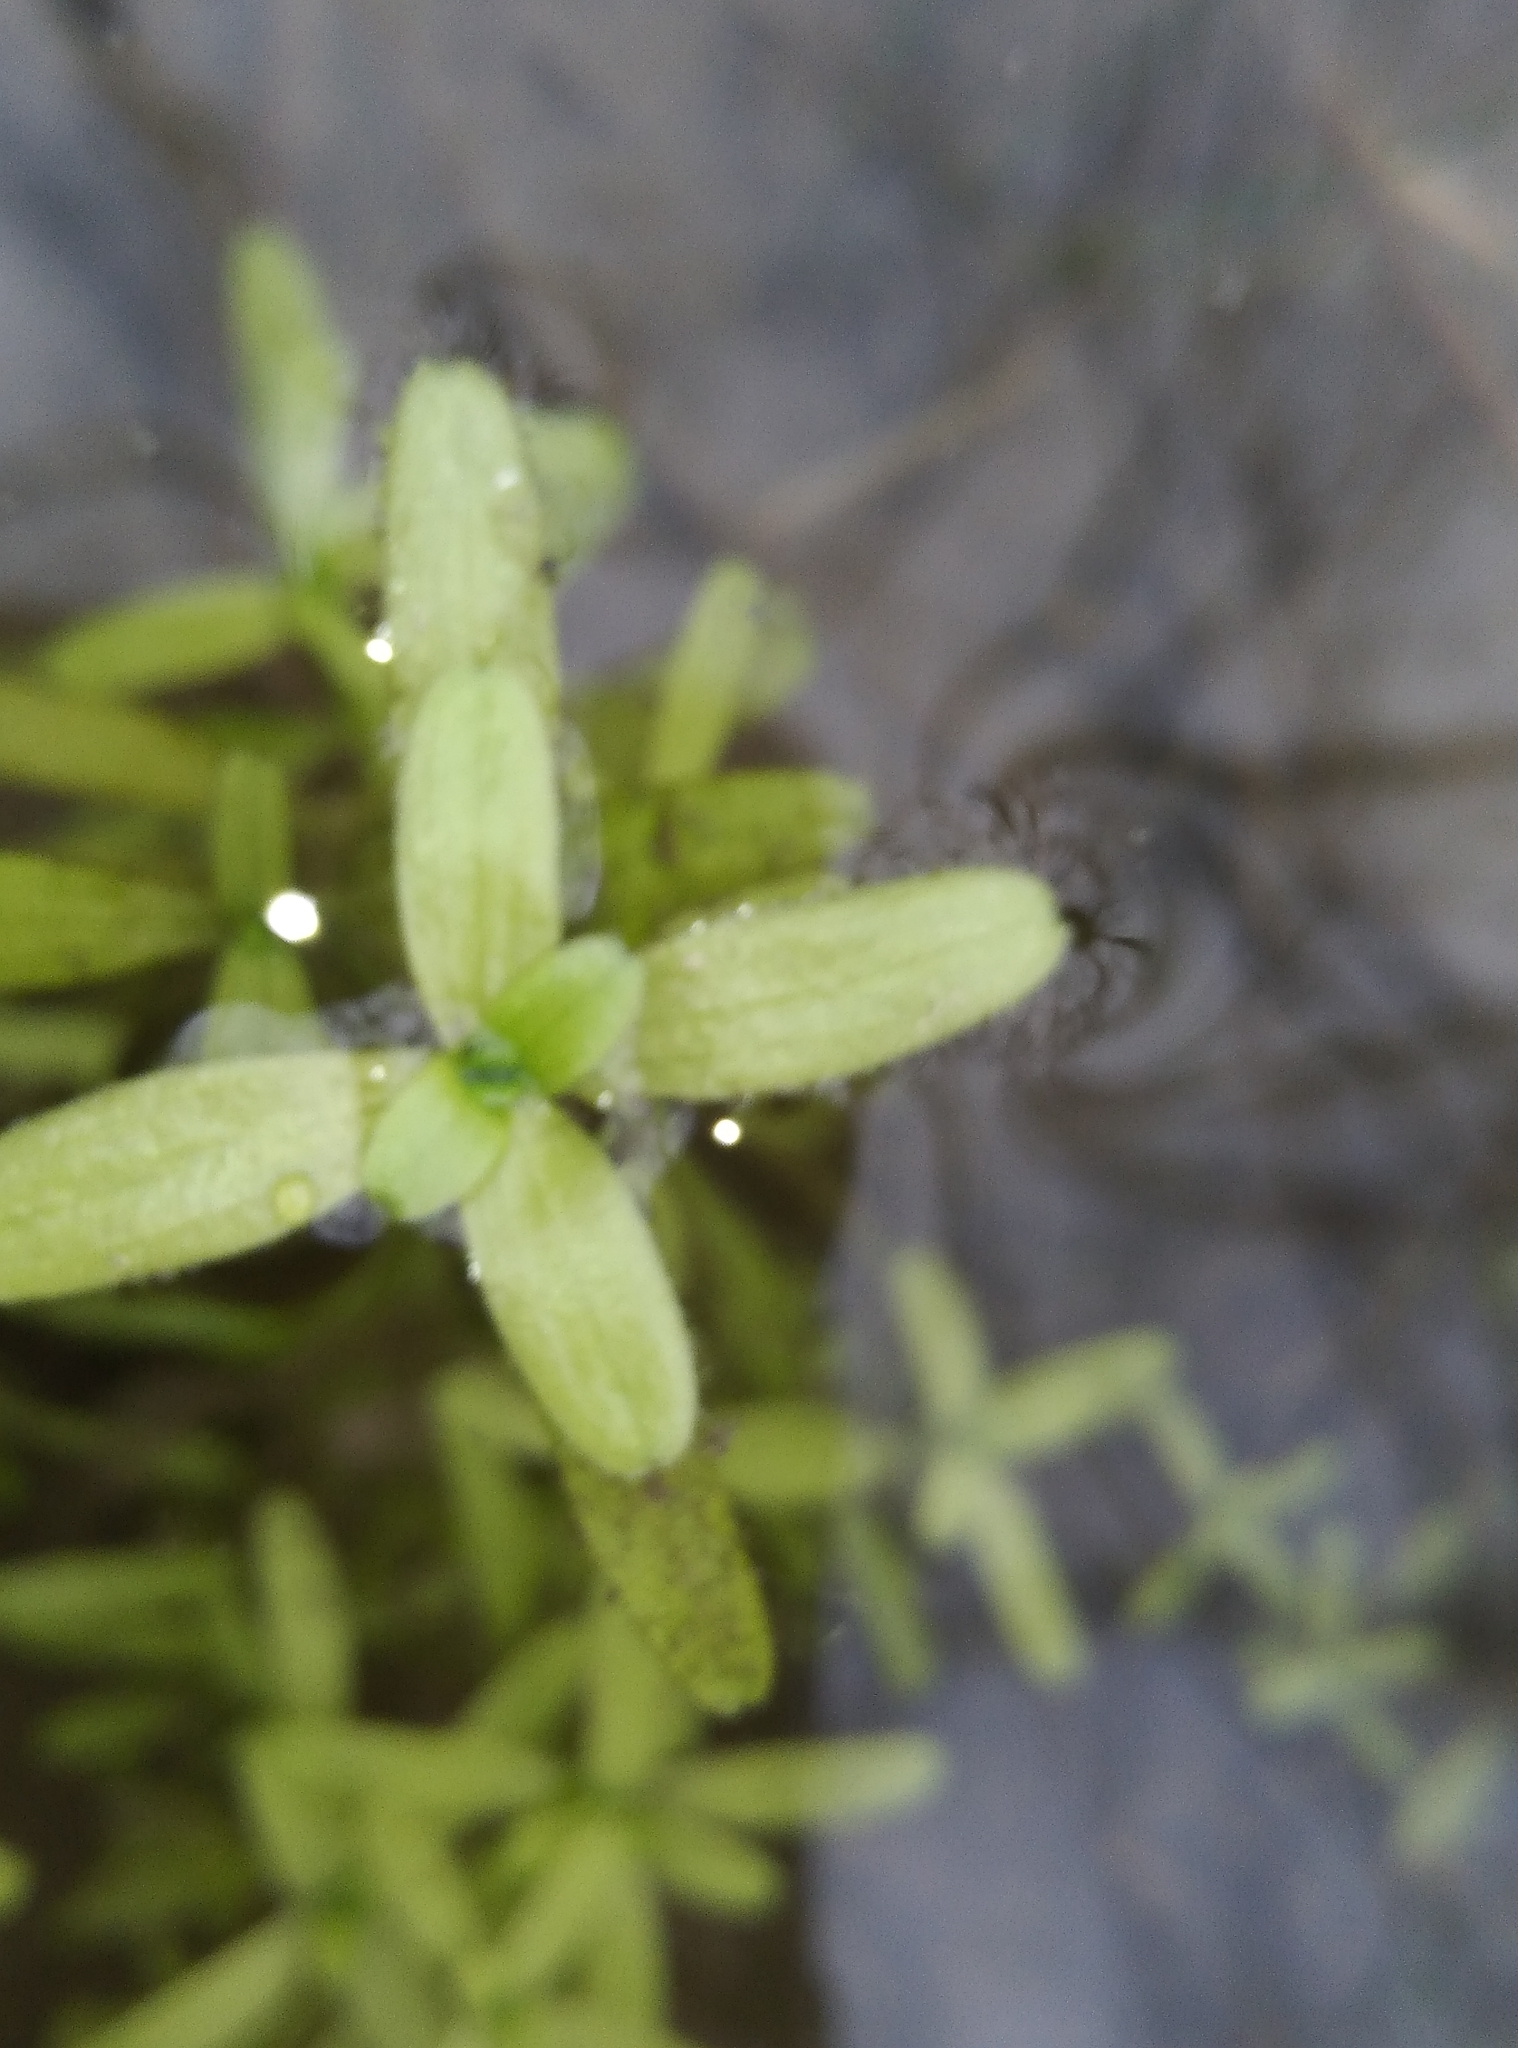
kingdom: Plantae
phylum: Tracheophyta
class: Magnoliopsida
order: Lamiales
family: Plantaginaceae
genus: Callitriche
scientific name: Callitriche petriei
